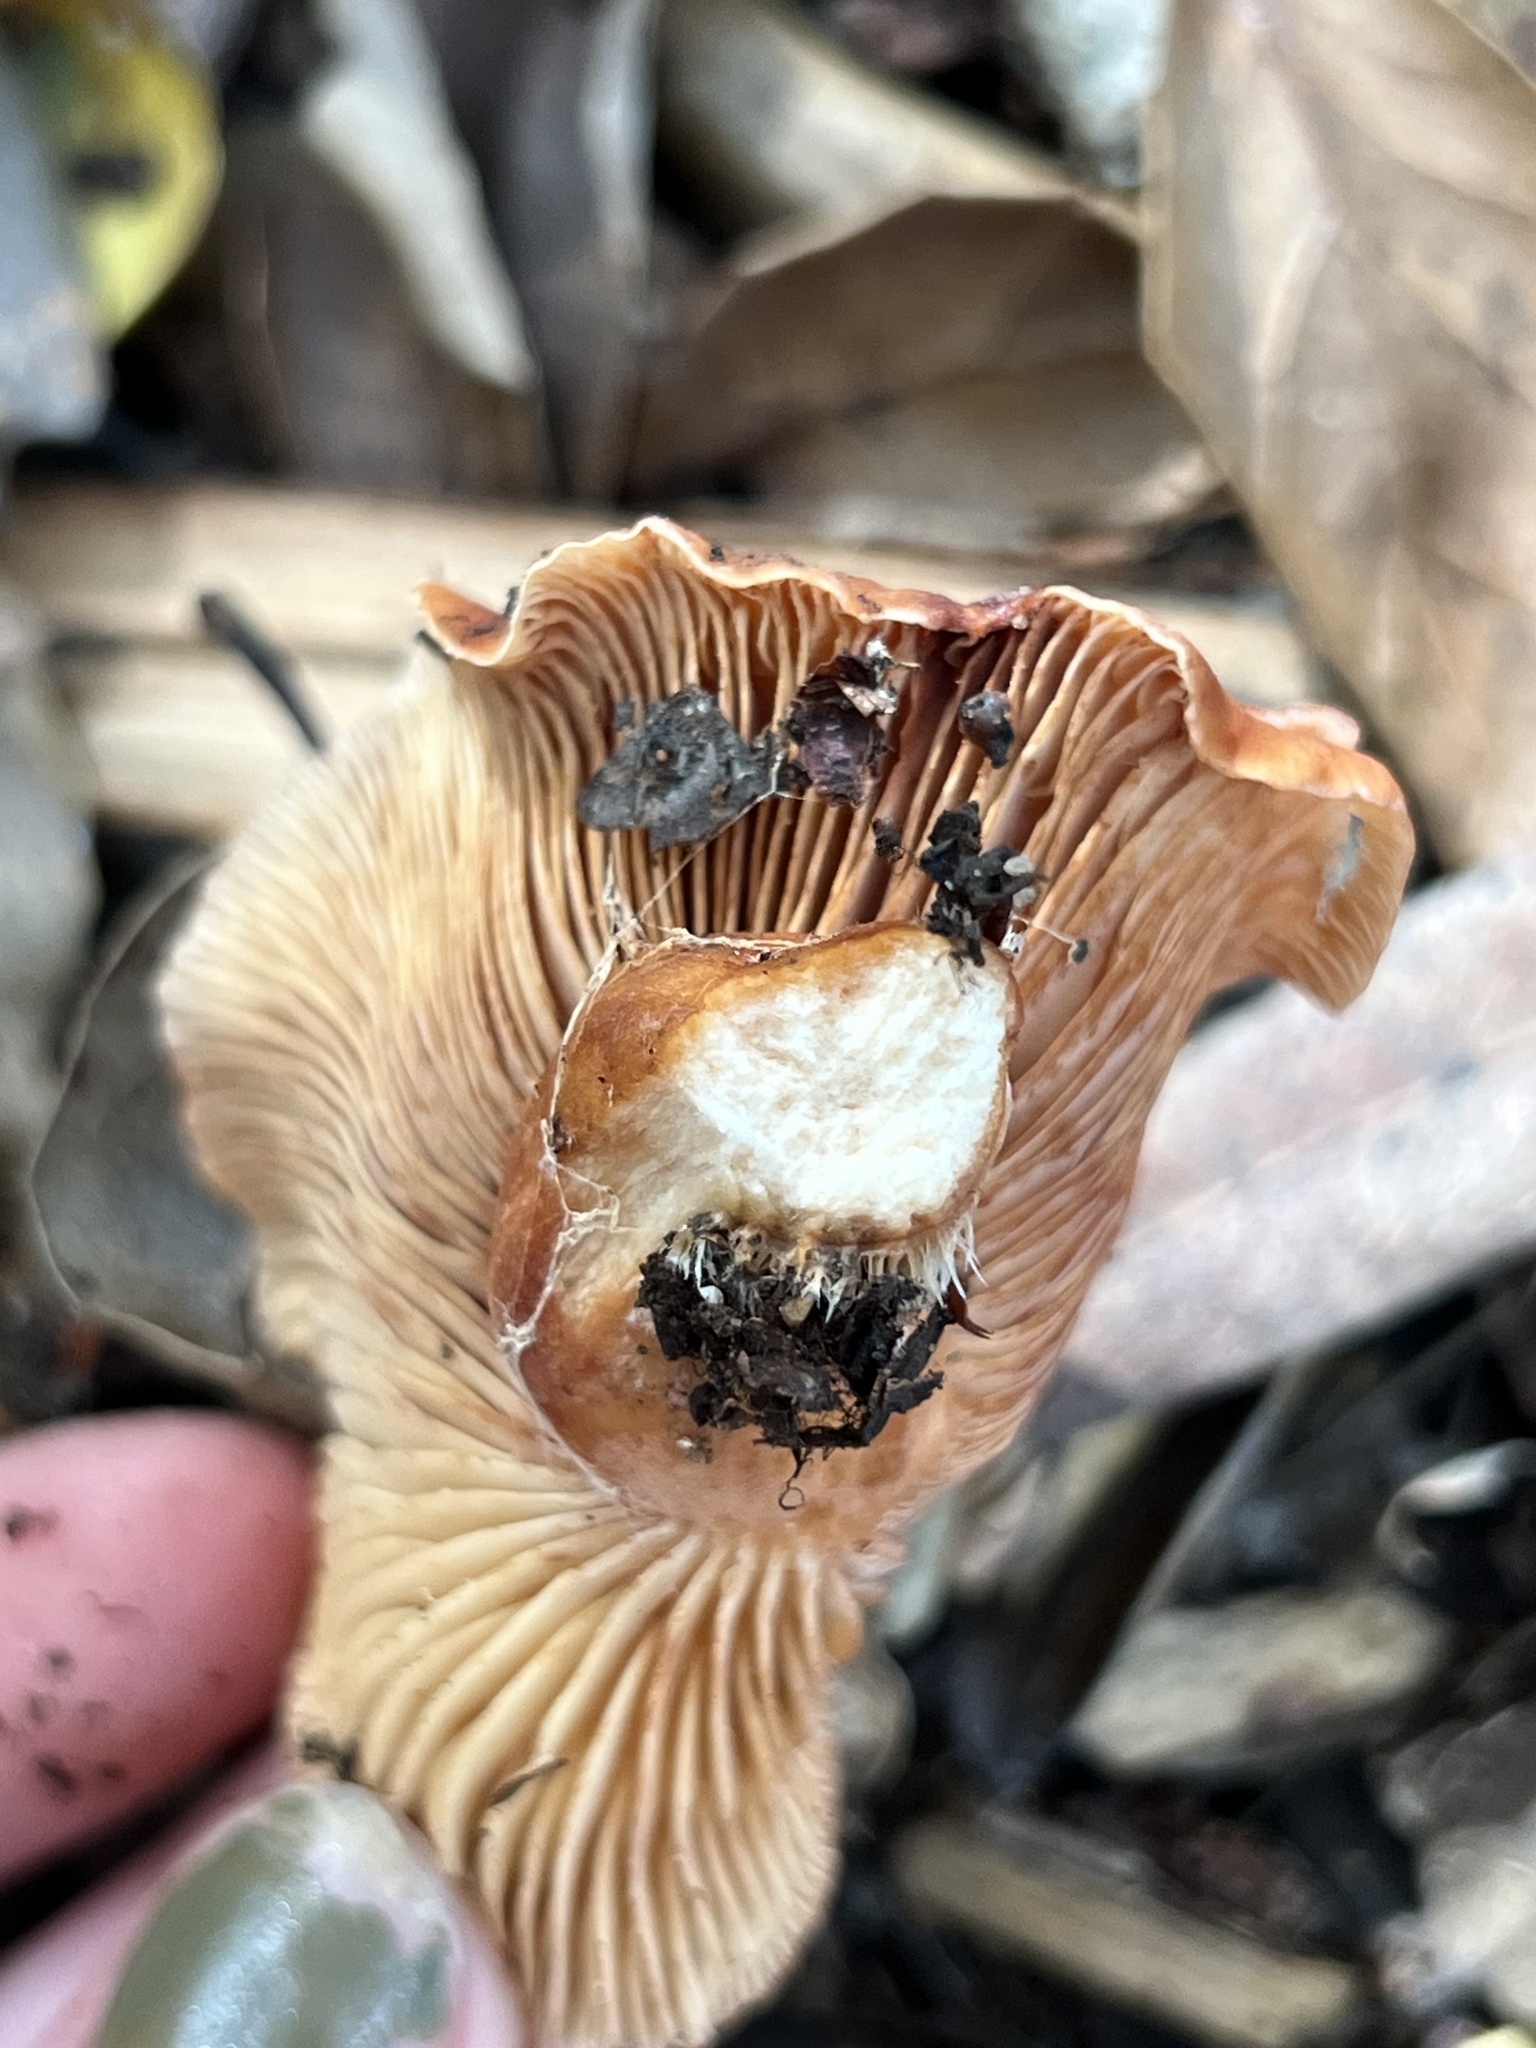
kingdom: Fungi
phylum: Basidiomycota
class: Agaricomycetes
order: Russulales
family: Russulaceae
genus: Lactarius
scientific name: Lactarius rufulus
